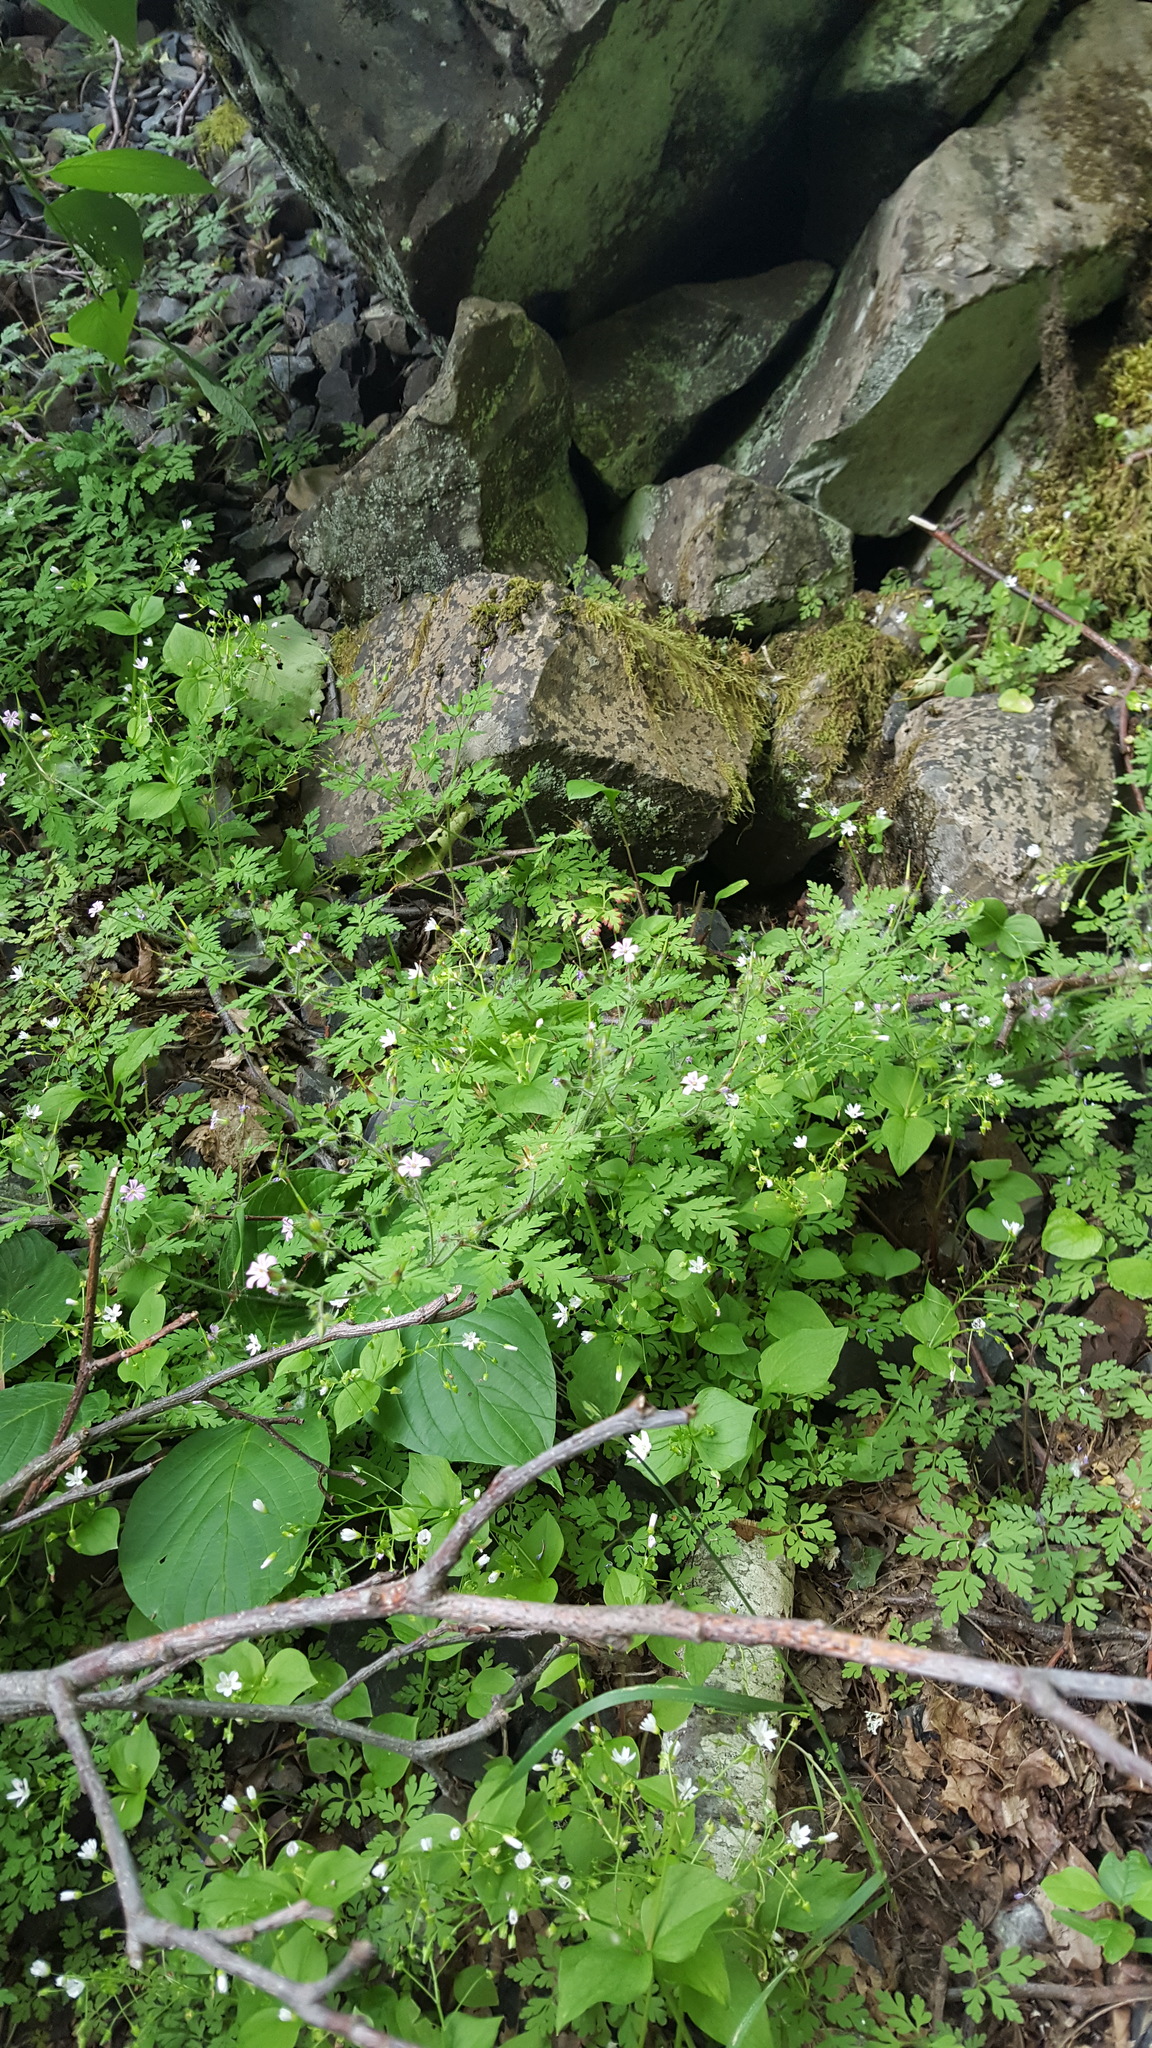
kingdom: Plantae
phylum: Tracheophyta
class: Magnoliopsida
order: Geraniales
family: Geraniaceae
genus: Geranium
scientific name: Geranium robertianum
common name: Herb-robert
